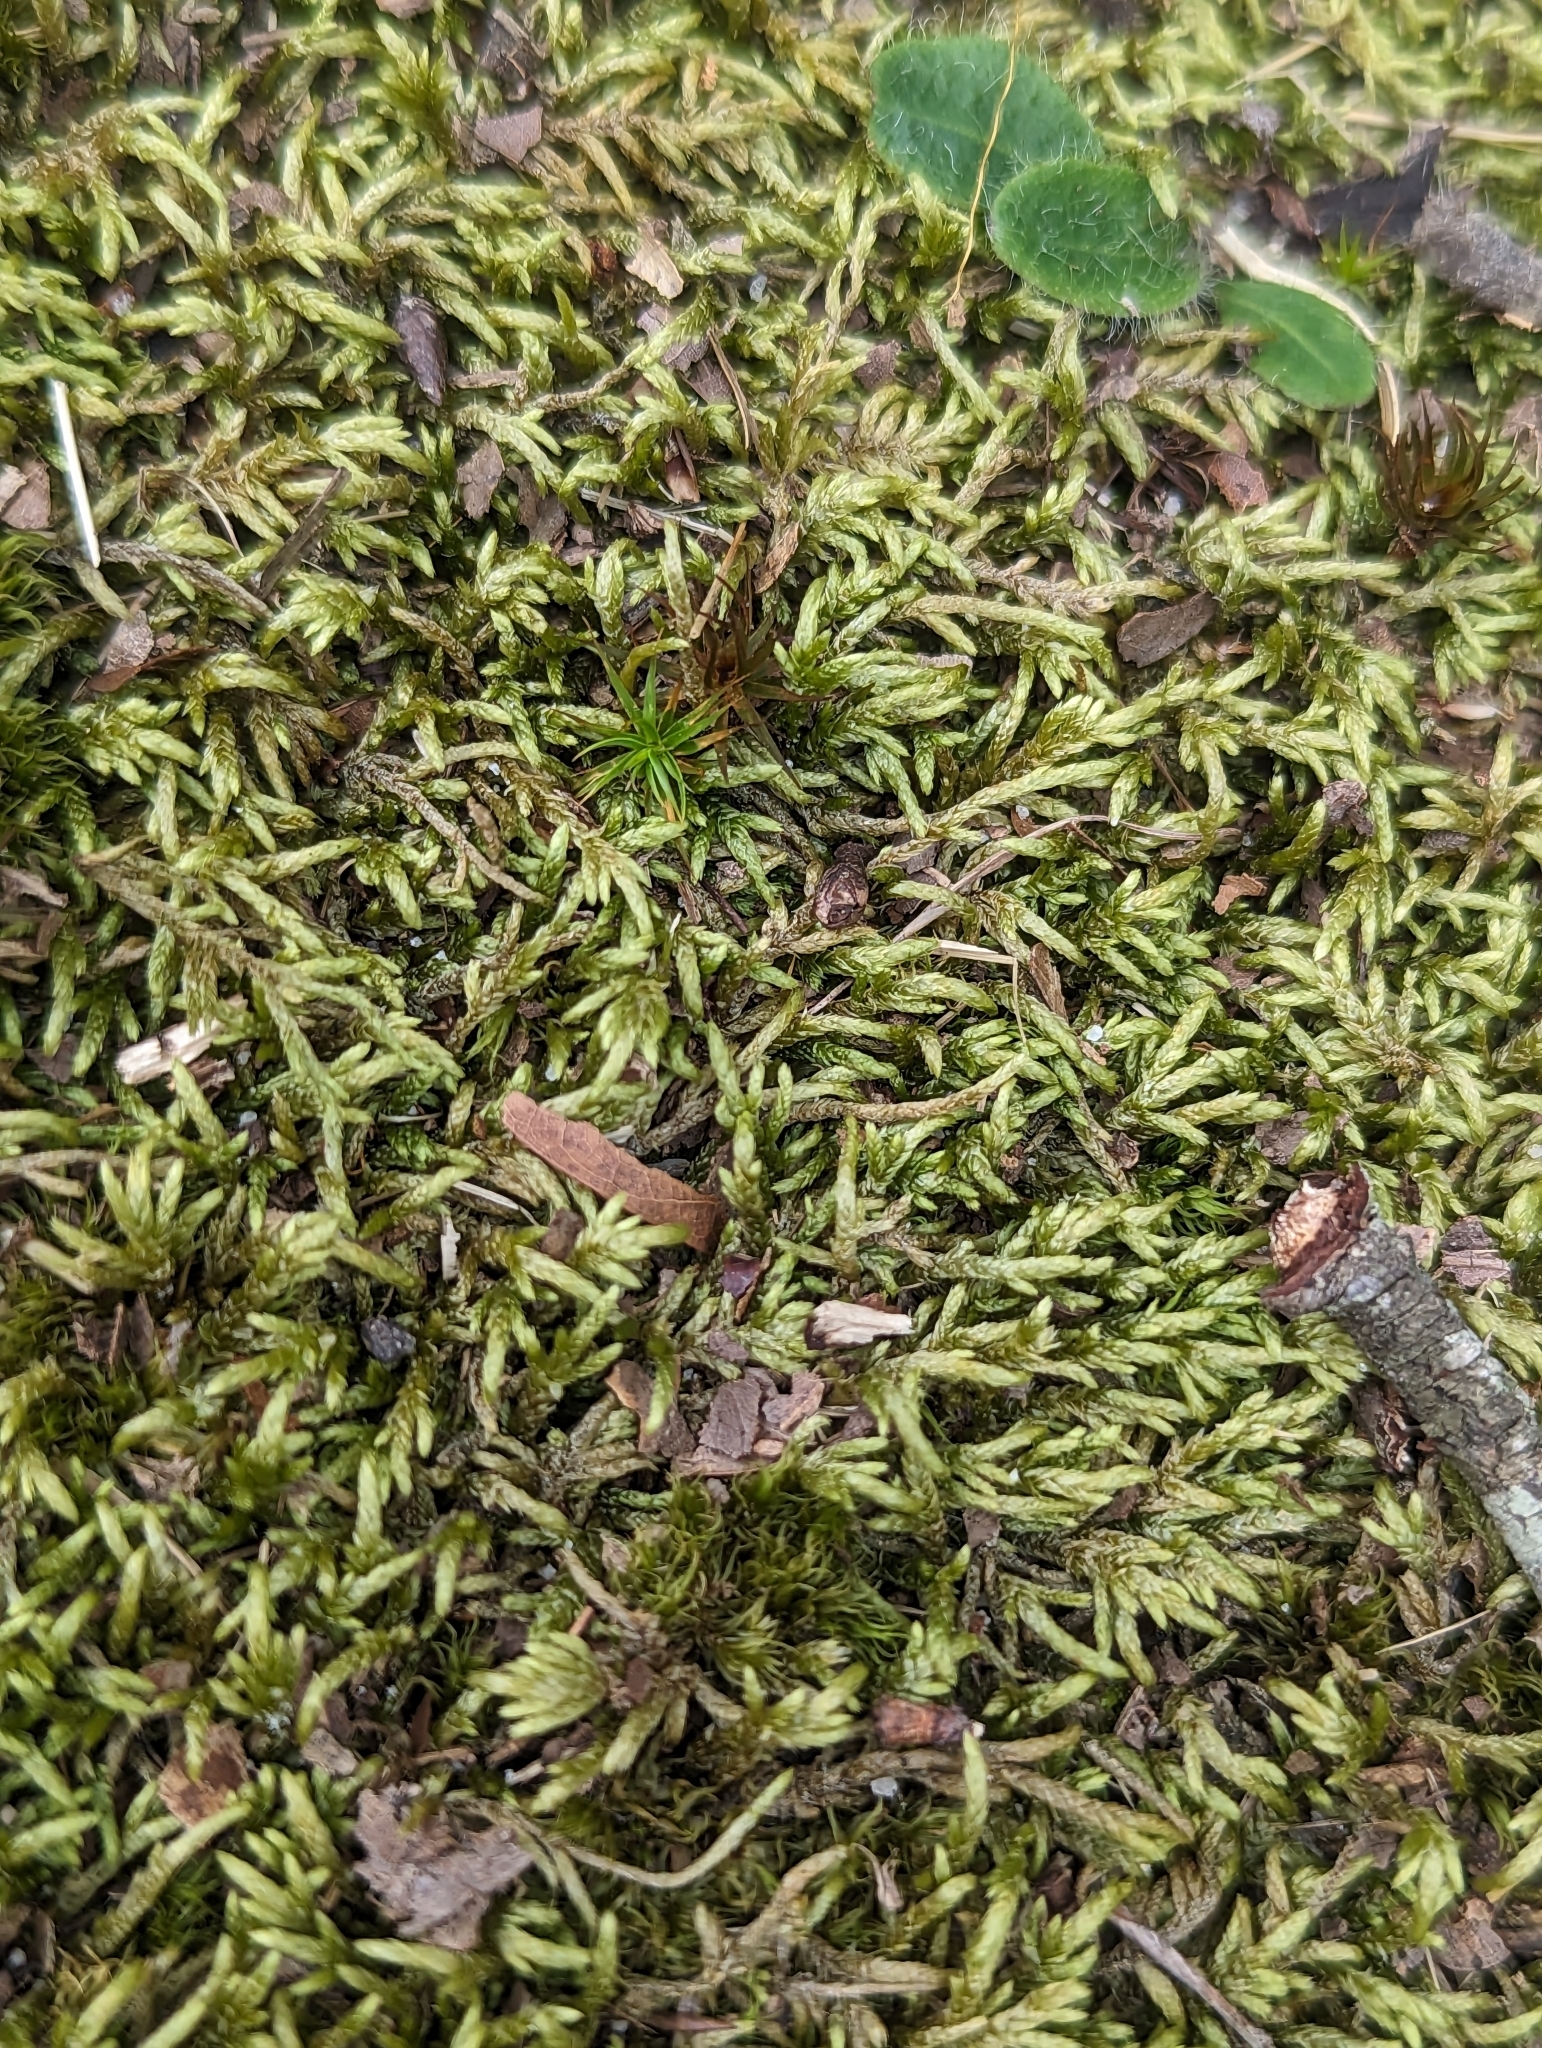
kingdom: Plantae
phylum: Bryophyta
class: Bryopsida
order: Hypnales
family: Entodontaceae
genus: Entodon
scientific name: Entodon seductrix
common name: Round-stemmed entodon moss
